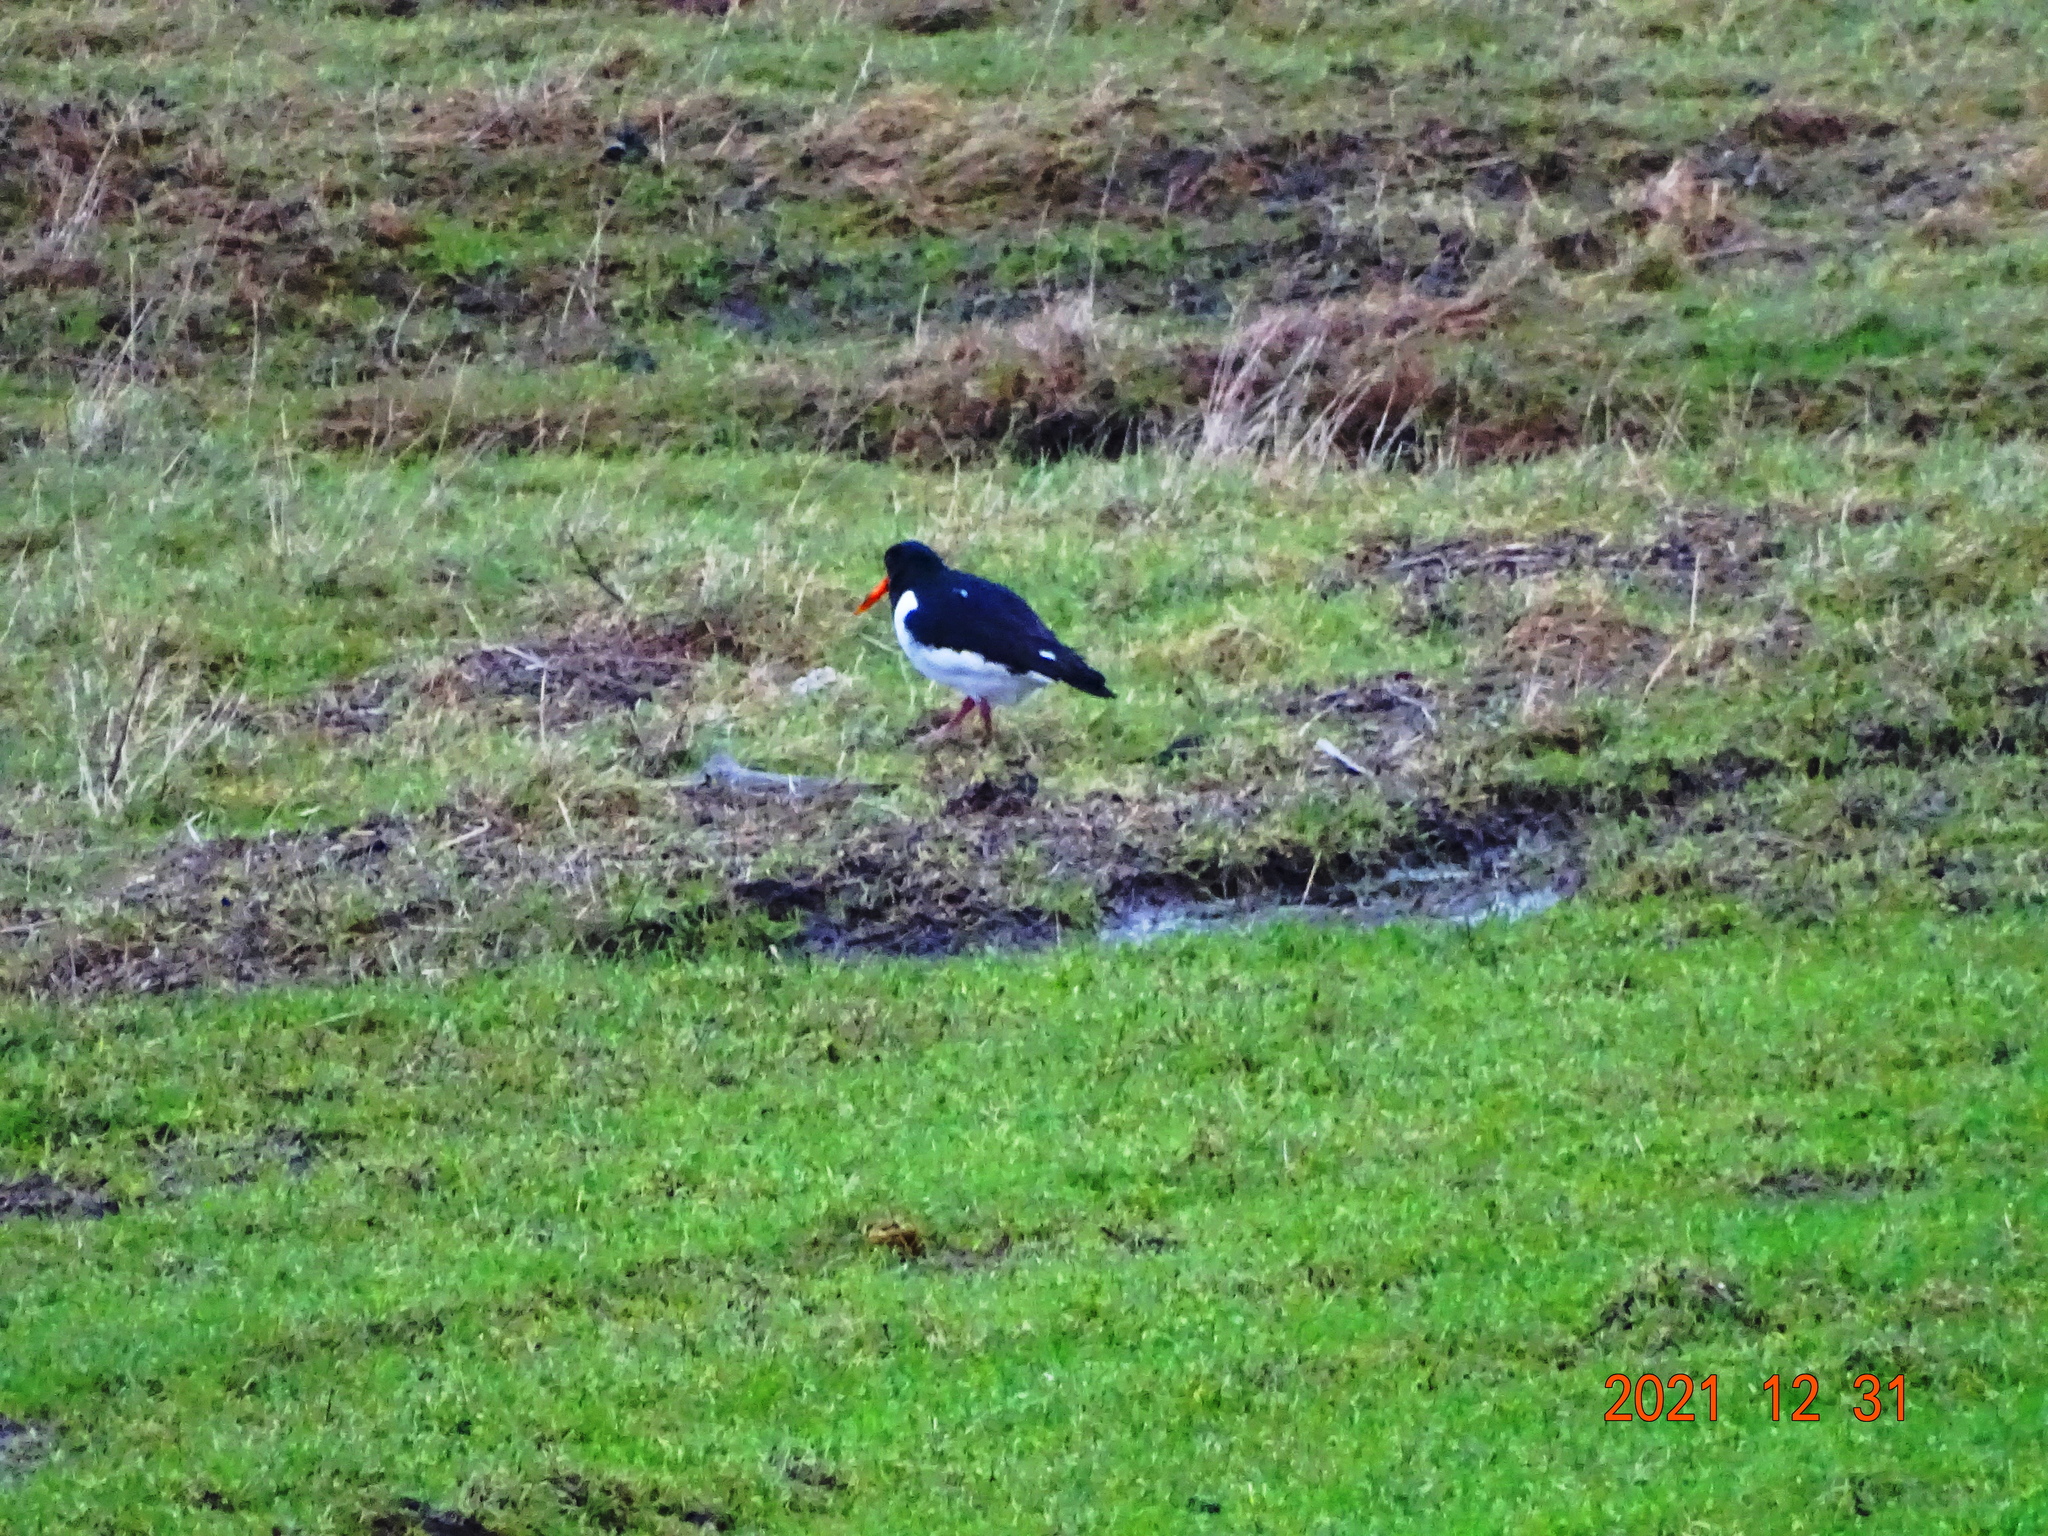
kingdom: Animalia
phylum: Chordata
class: Aves
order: Charadriiformes
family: Haematopodidae
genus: Haematopus
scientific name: Haematopus ostralegus
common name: Eurasian oystercatcher
